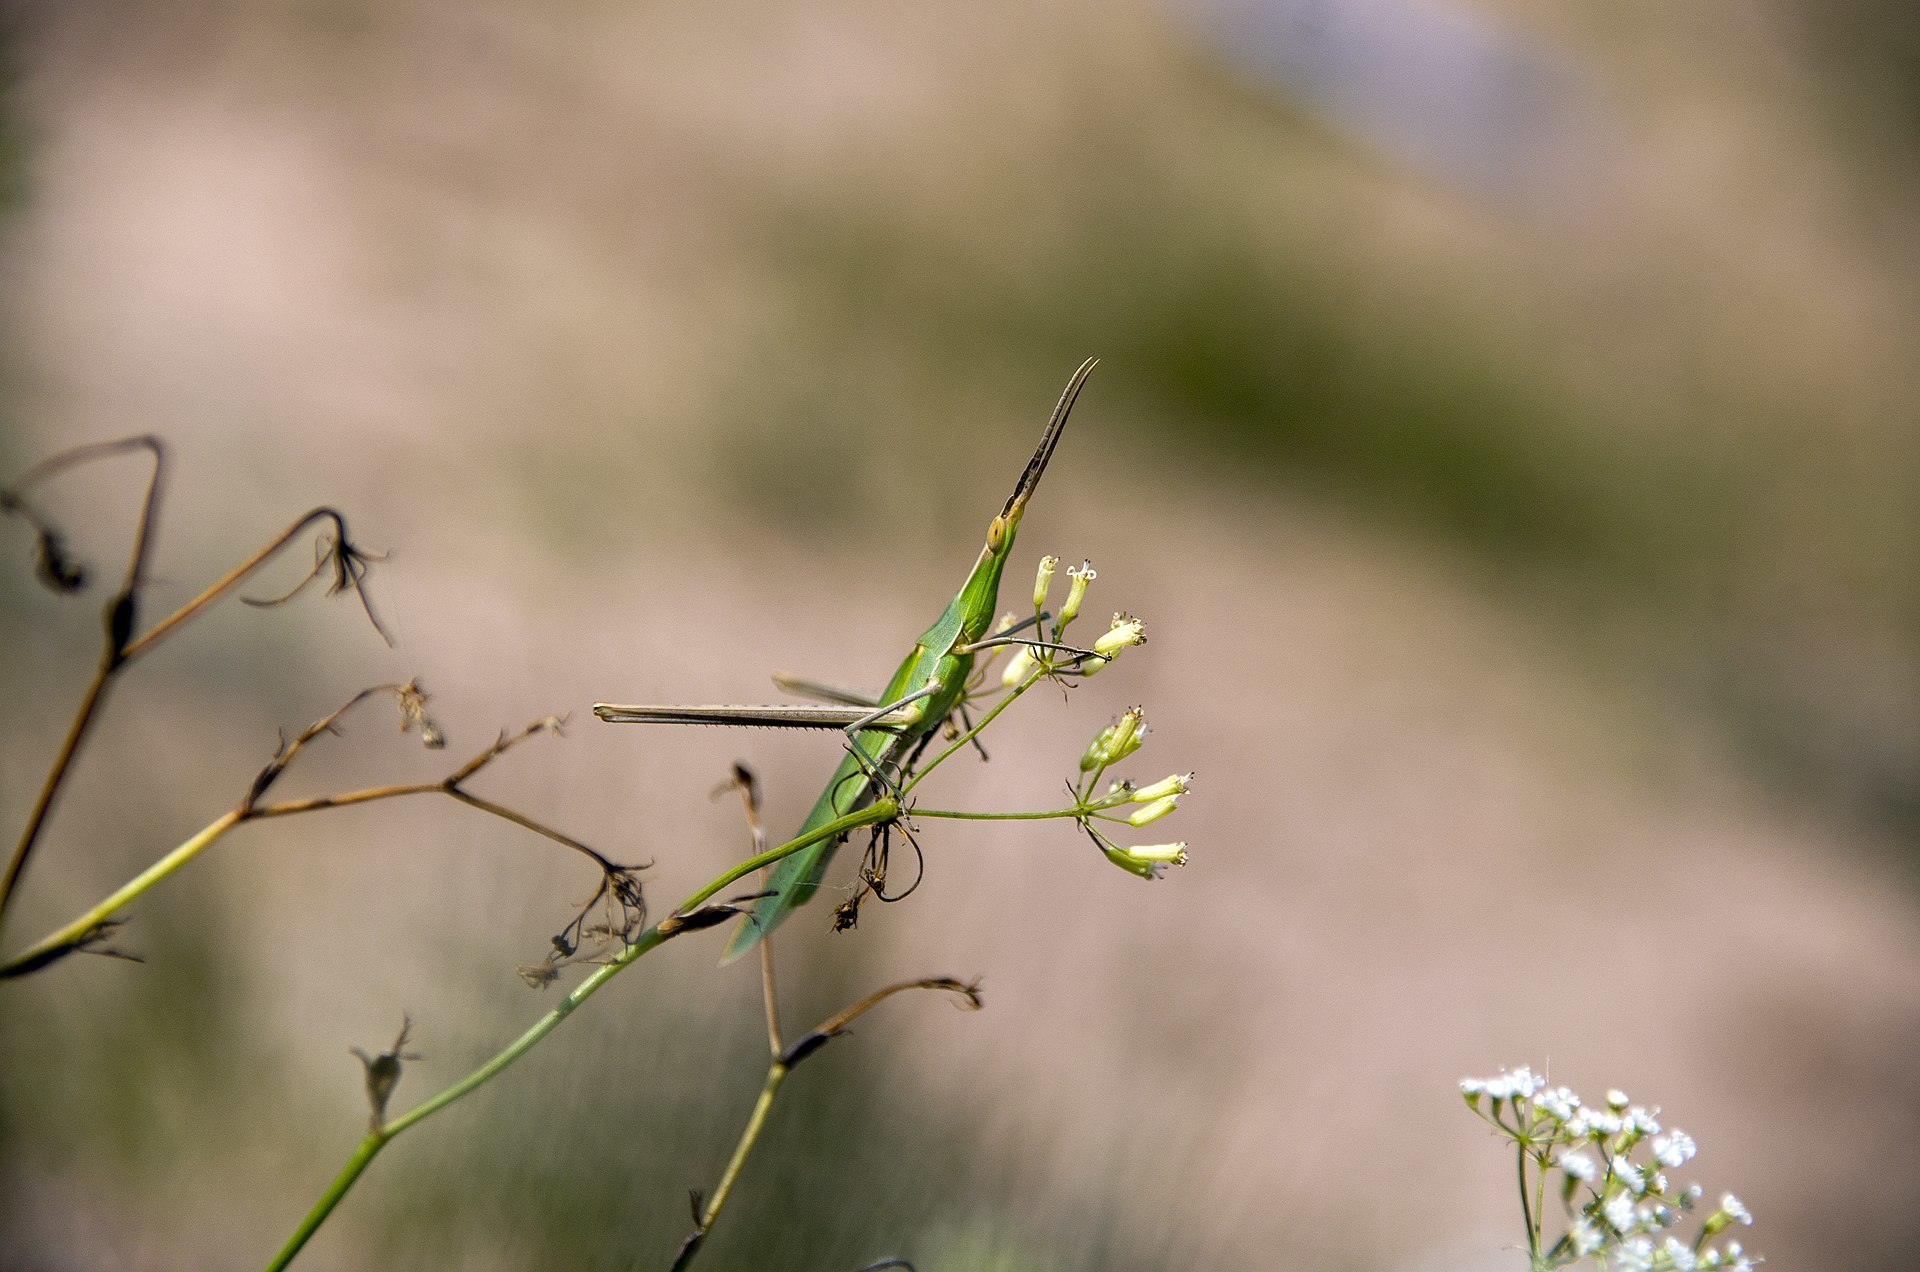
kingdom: Animalia
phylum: Arthropoda
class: Insecta
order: Orthoptera
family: Acrididae
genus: Acrida
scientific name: Acrida ungarica
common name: Common cone-headed grasshopper
